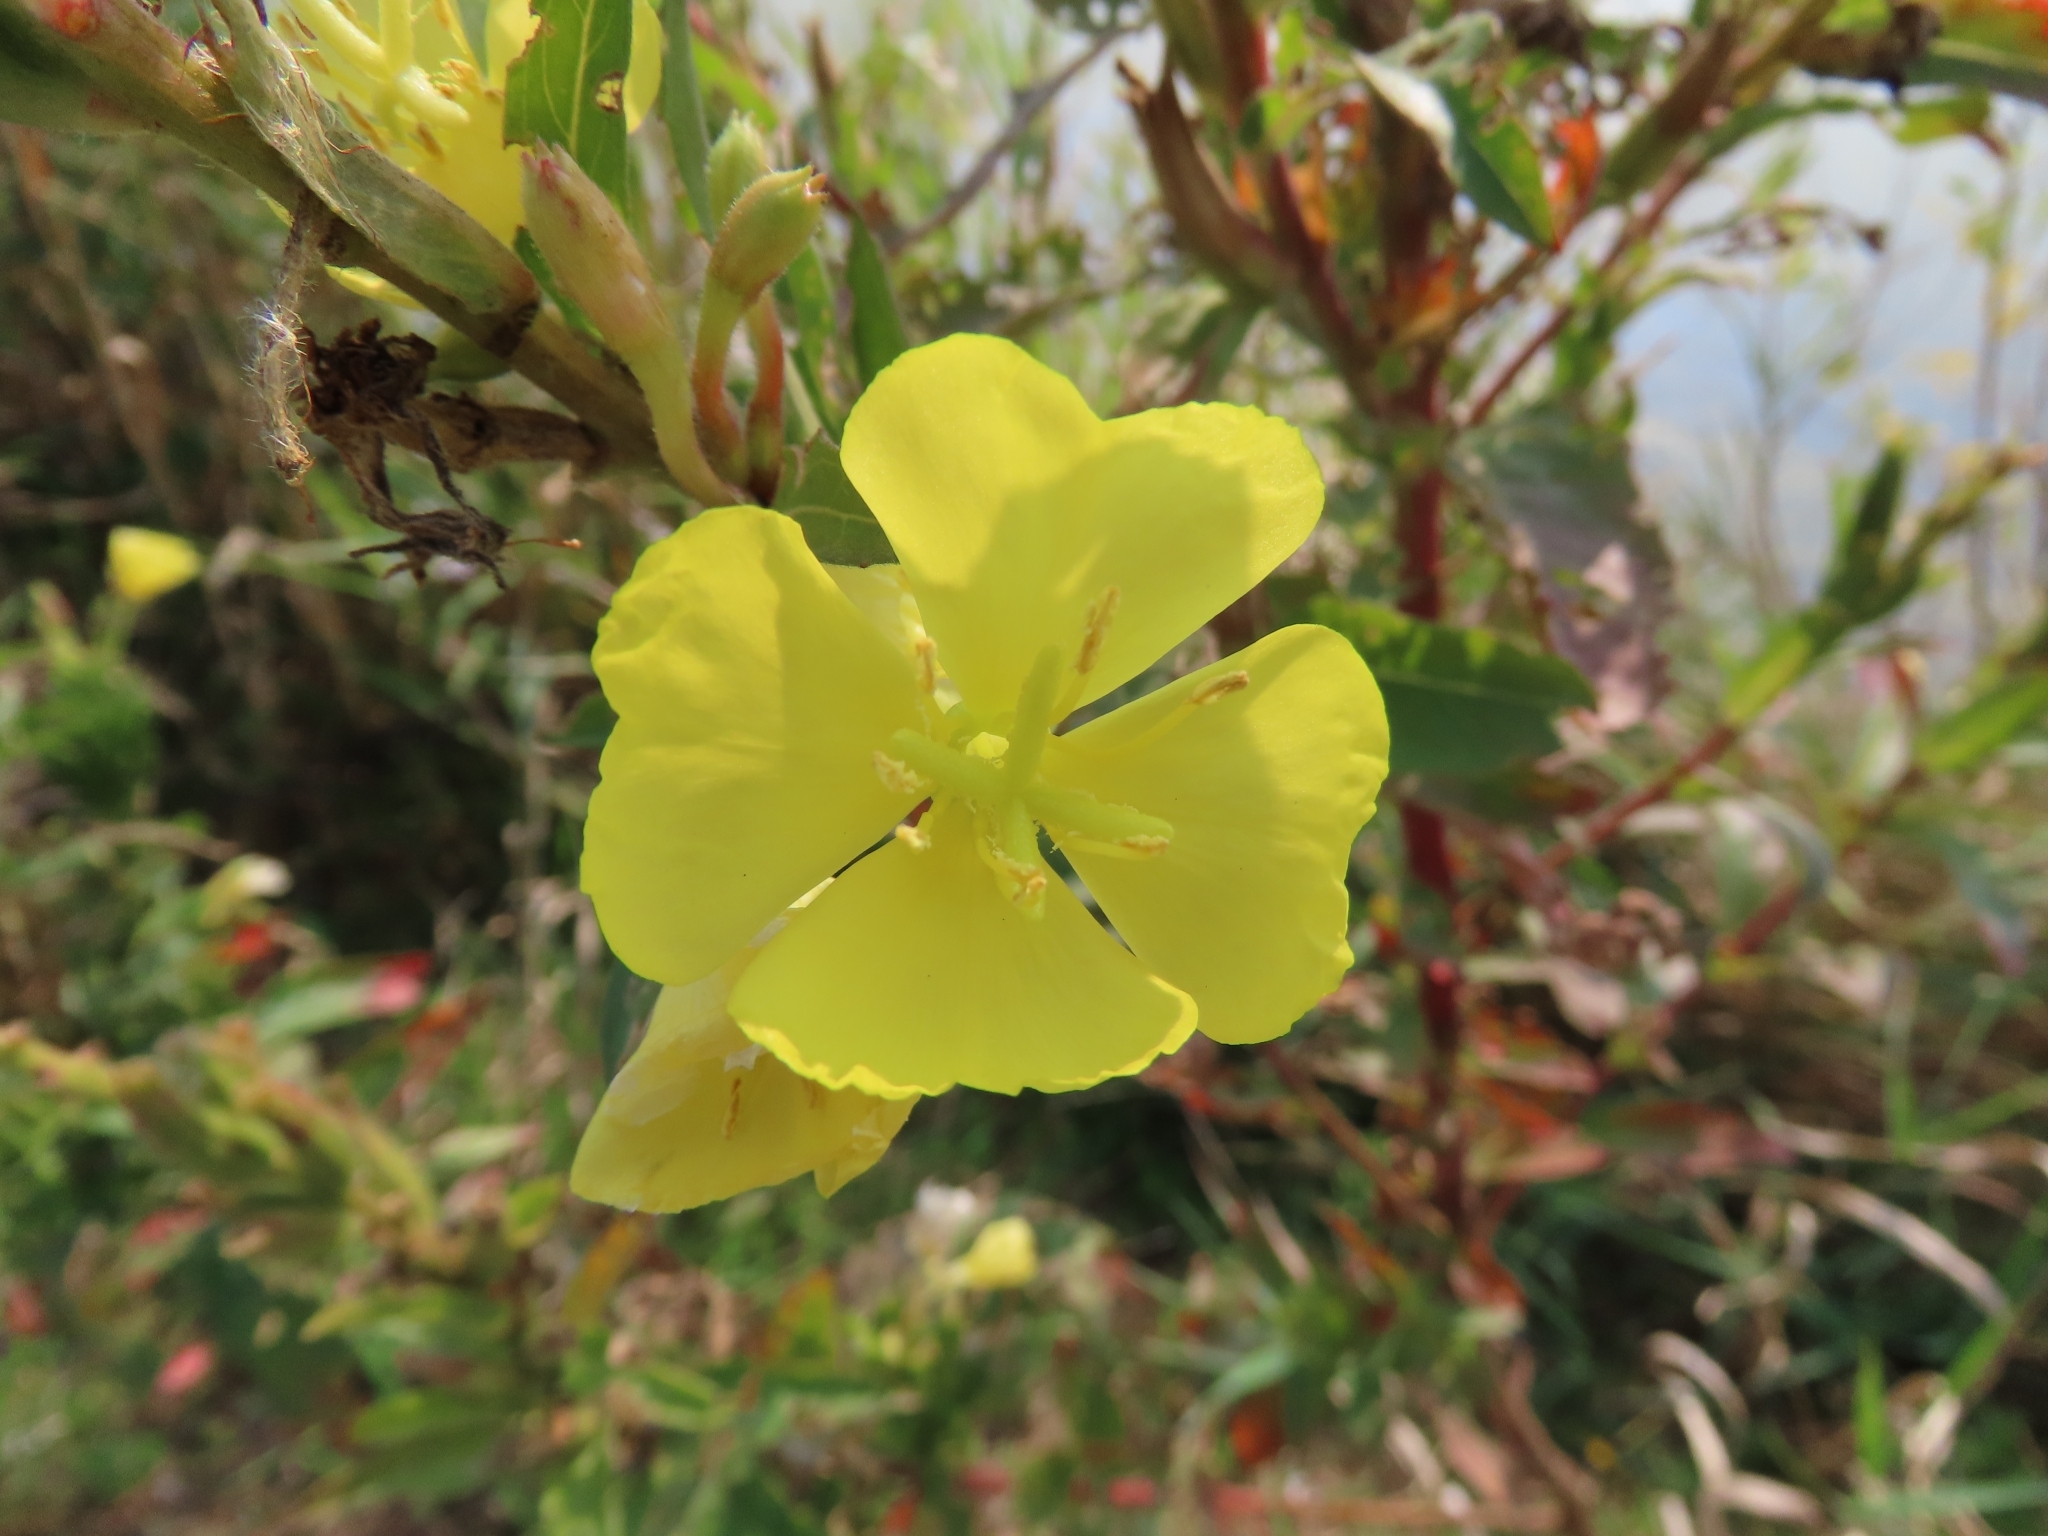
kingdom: Plantae
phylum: Tracheophyta
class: Magnoliopsida
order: Myrtales
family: Onagraceae
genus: Oenothera
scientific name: Oenothera biennis
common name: Common evening-primrose
